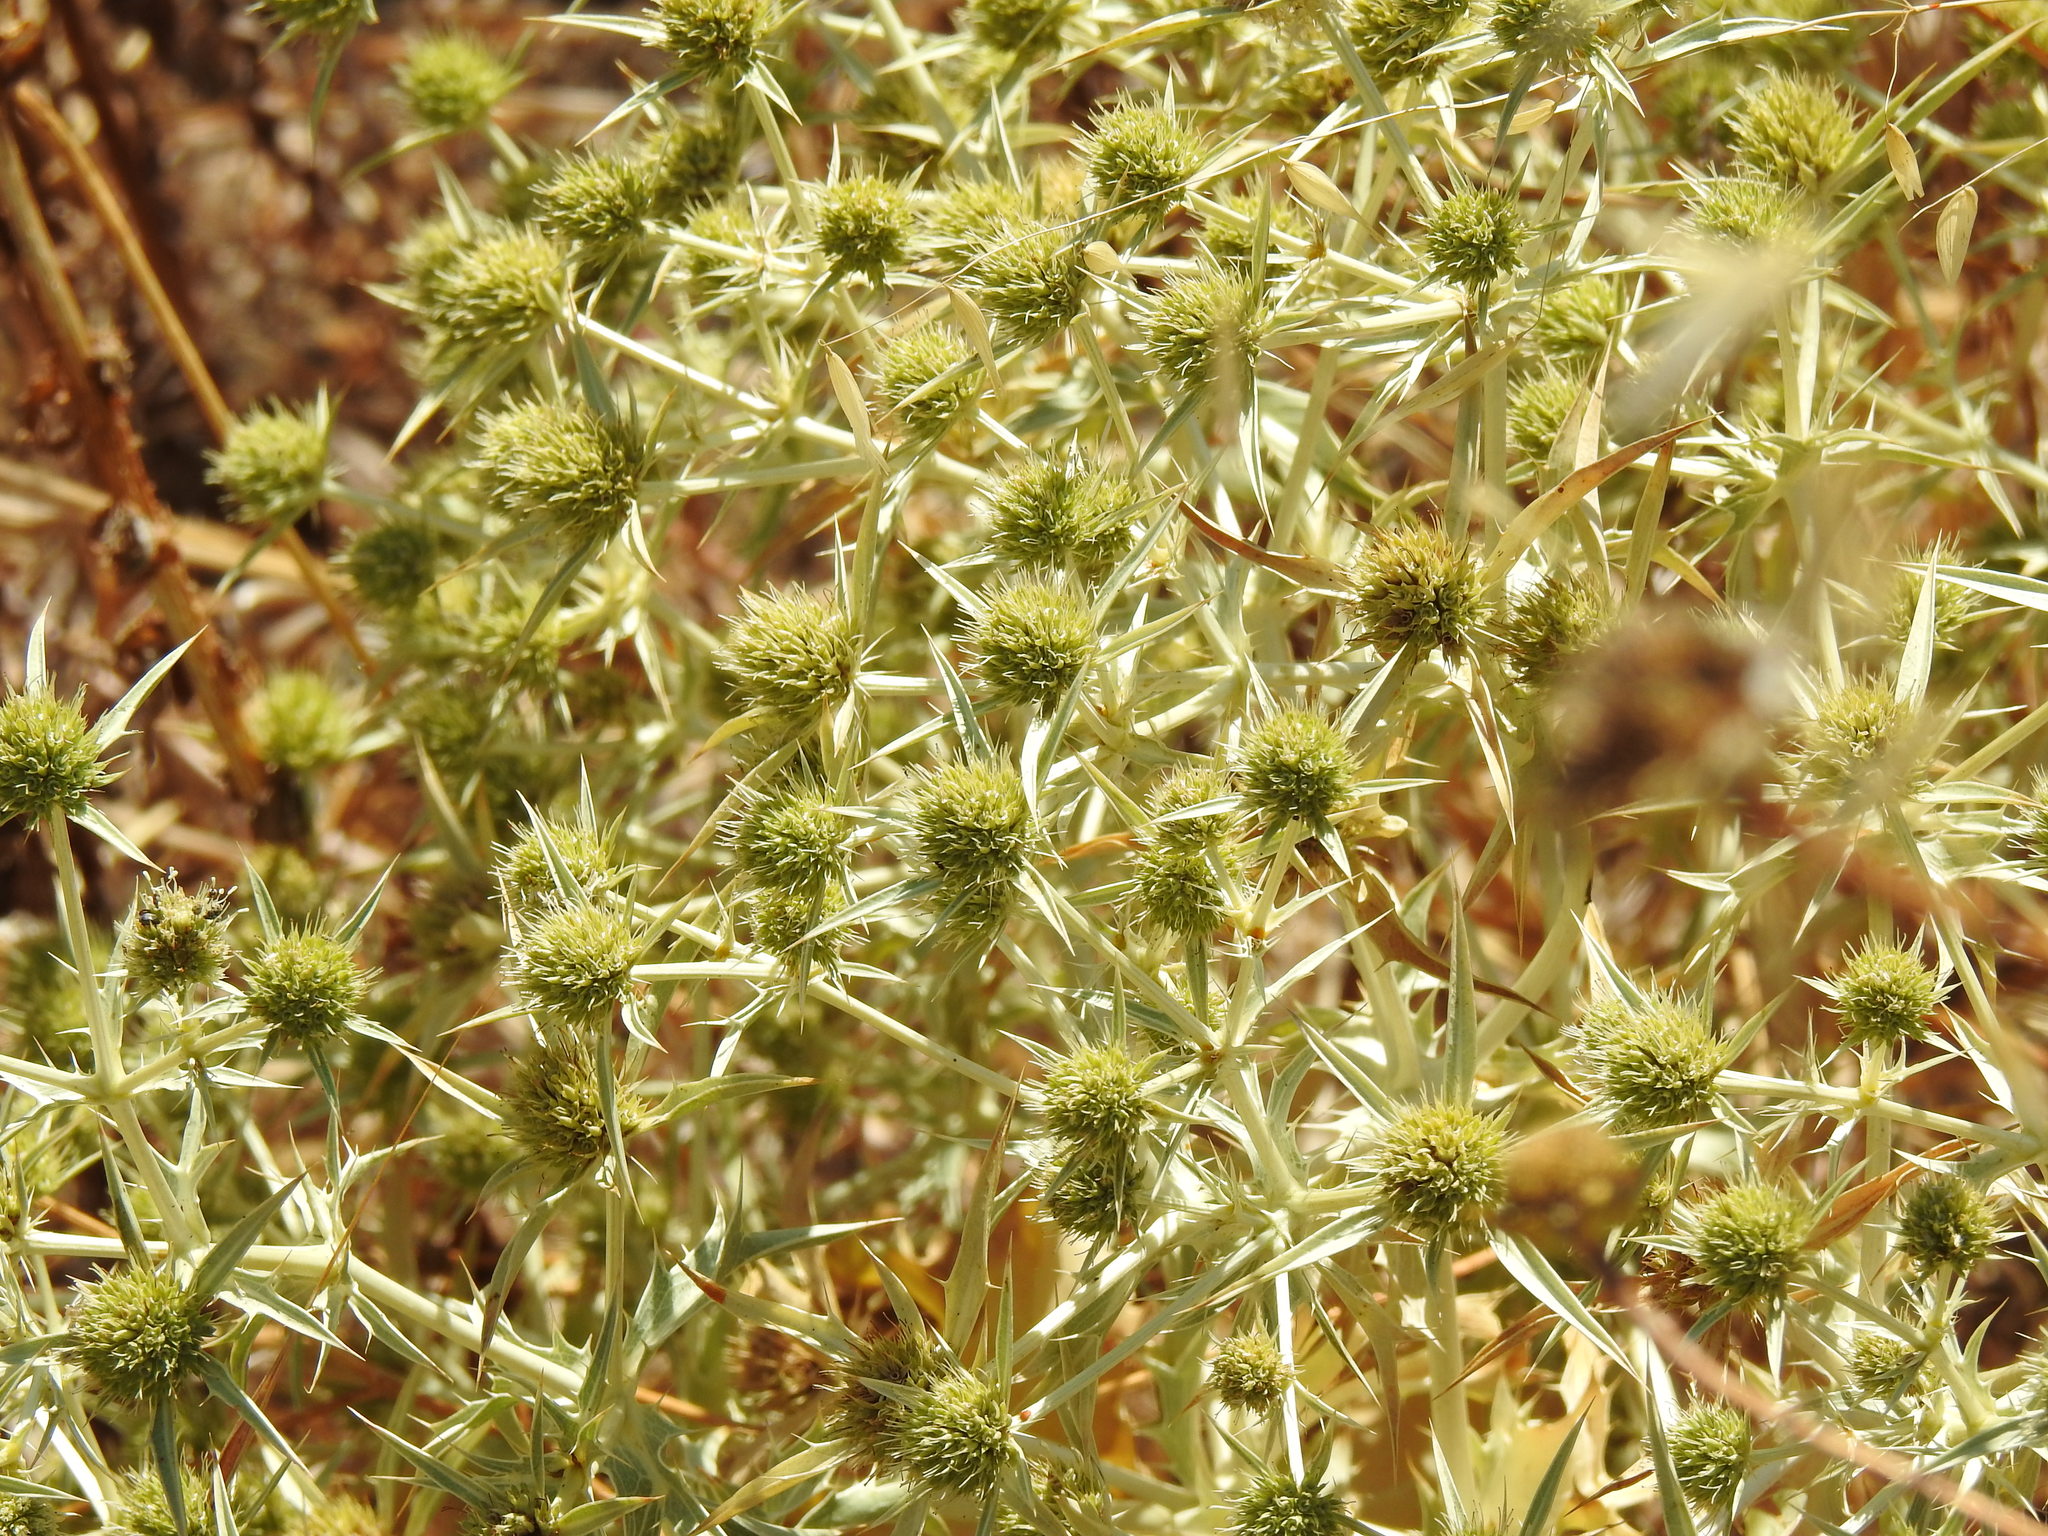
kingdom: Plantae
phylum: Tracheophyta
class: Magnoliopsida
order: Apiales
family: Apiaceae
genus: Eryngium
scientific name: Eryngium campestre
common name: Field eryngo
